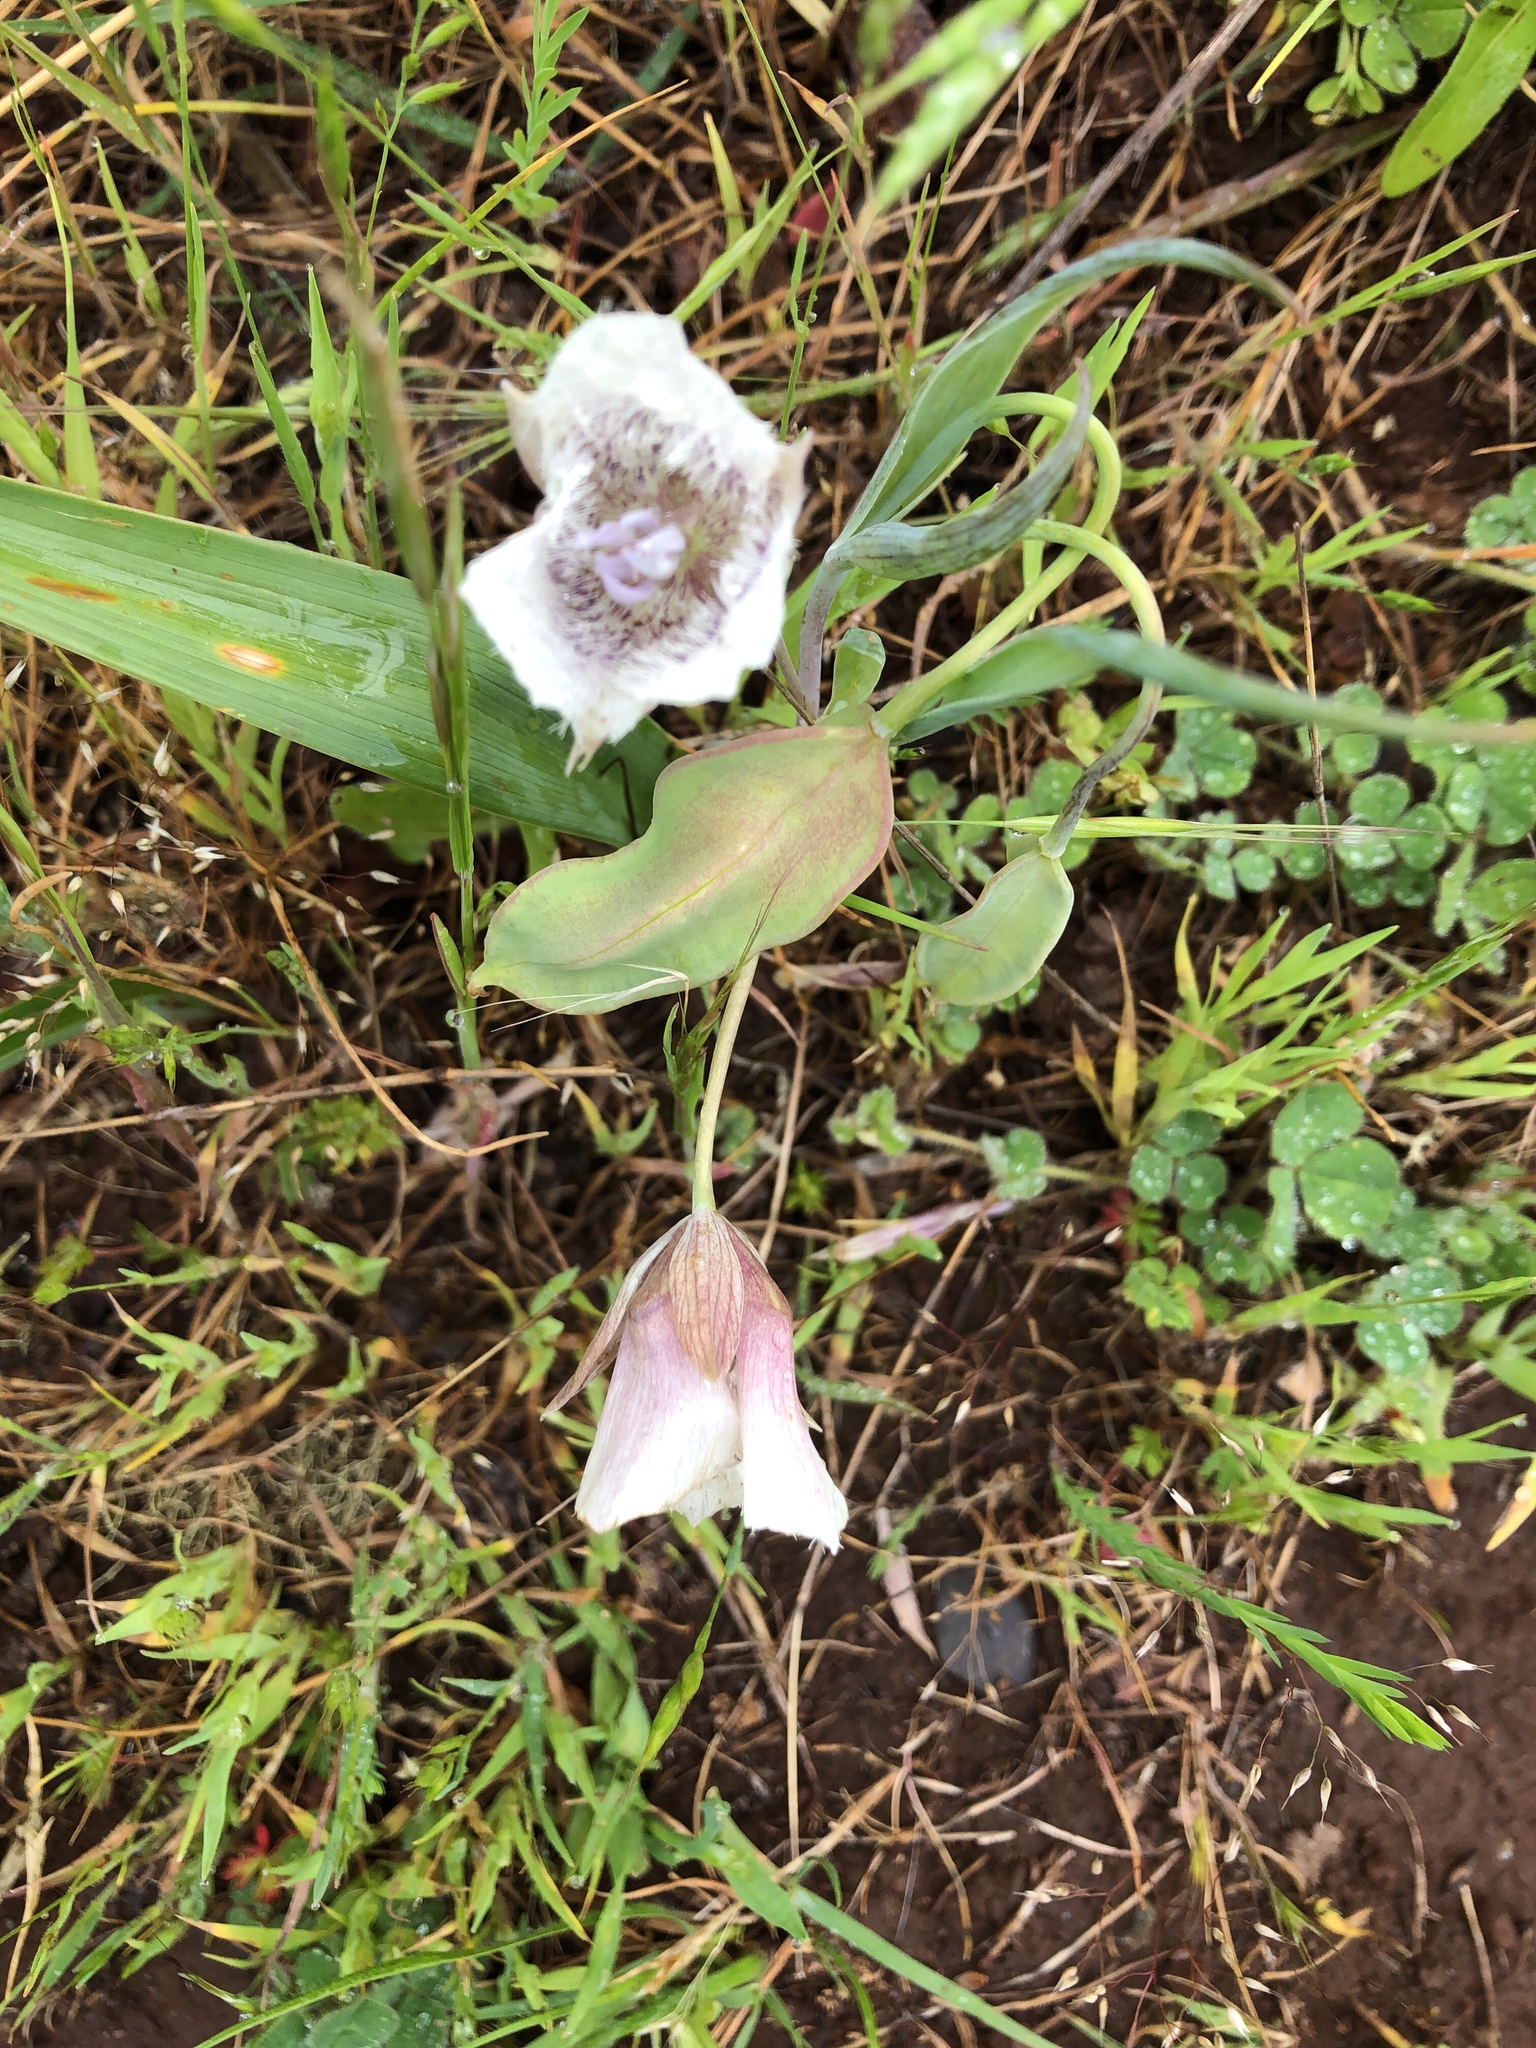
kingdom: Plantae
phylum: Tracheophyta
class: Liliopsida
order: Liliales
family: Liliaceae
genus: Calochortus
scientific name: Calochortus tolmiei
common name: Pussy-ears
